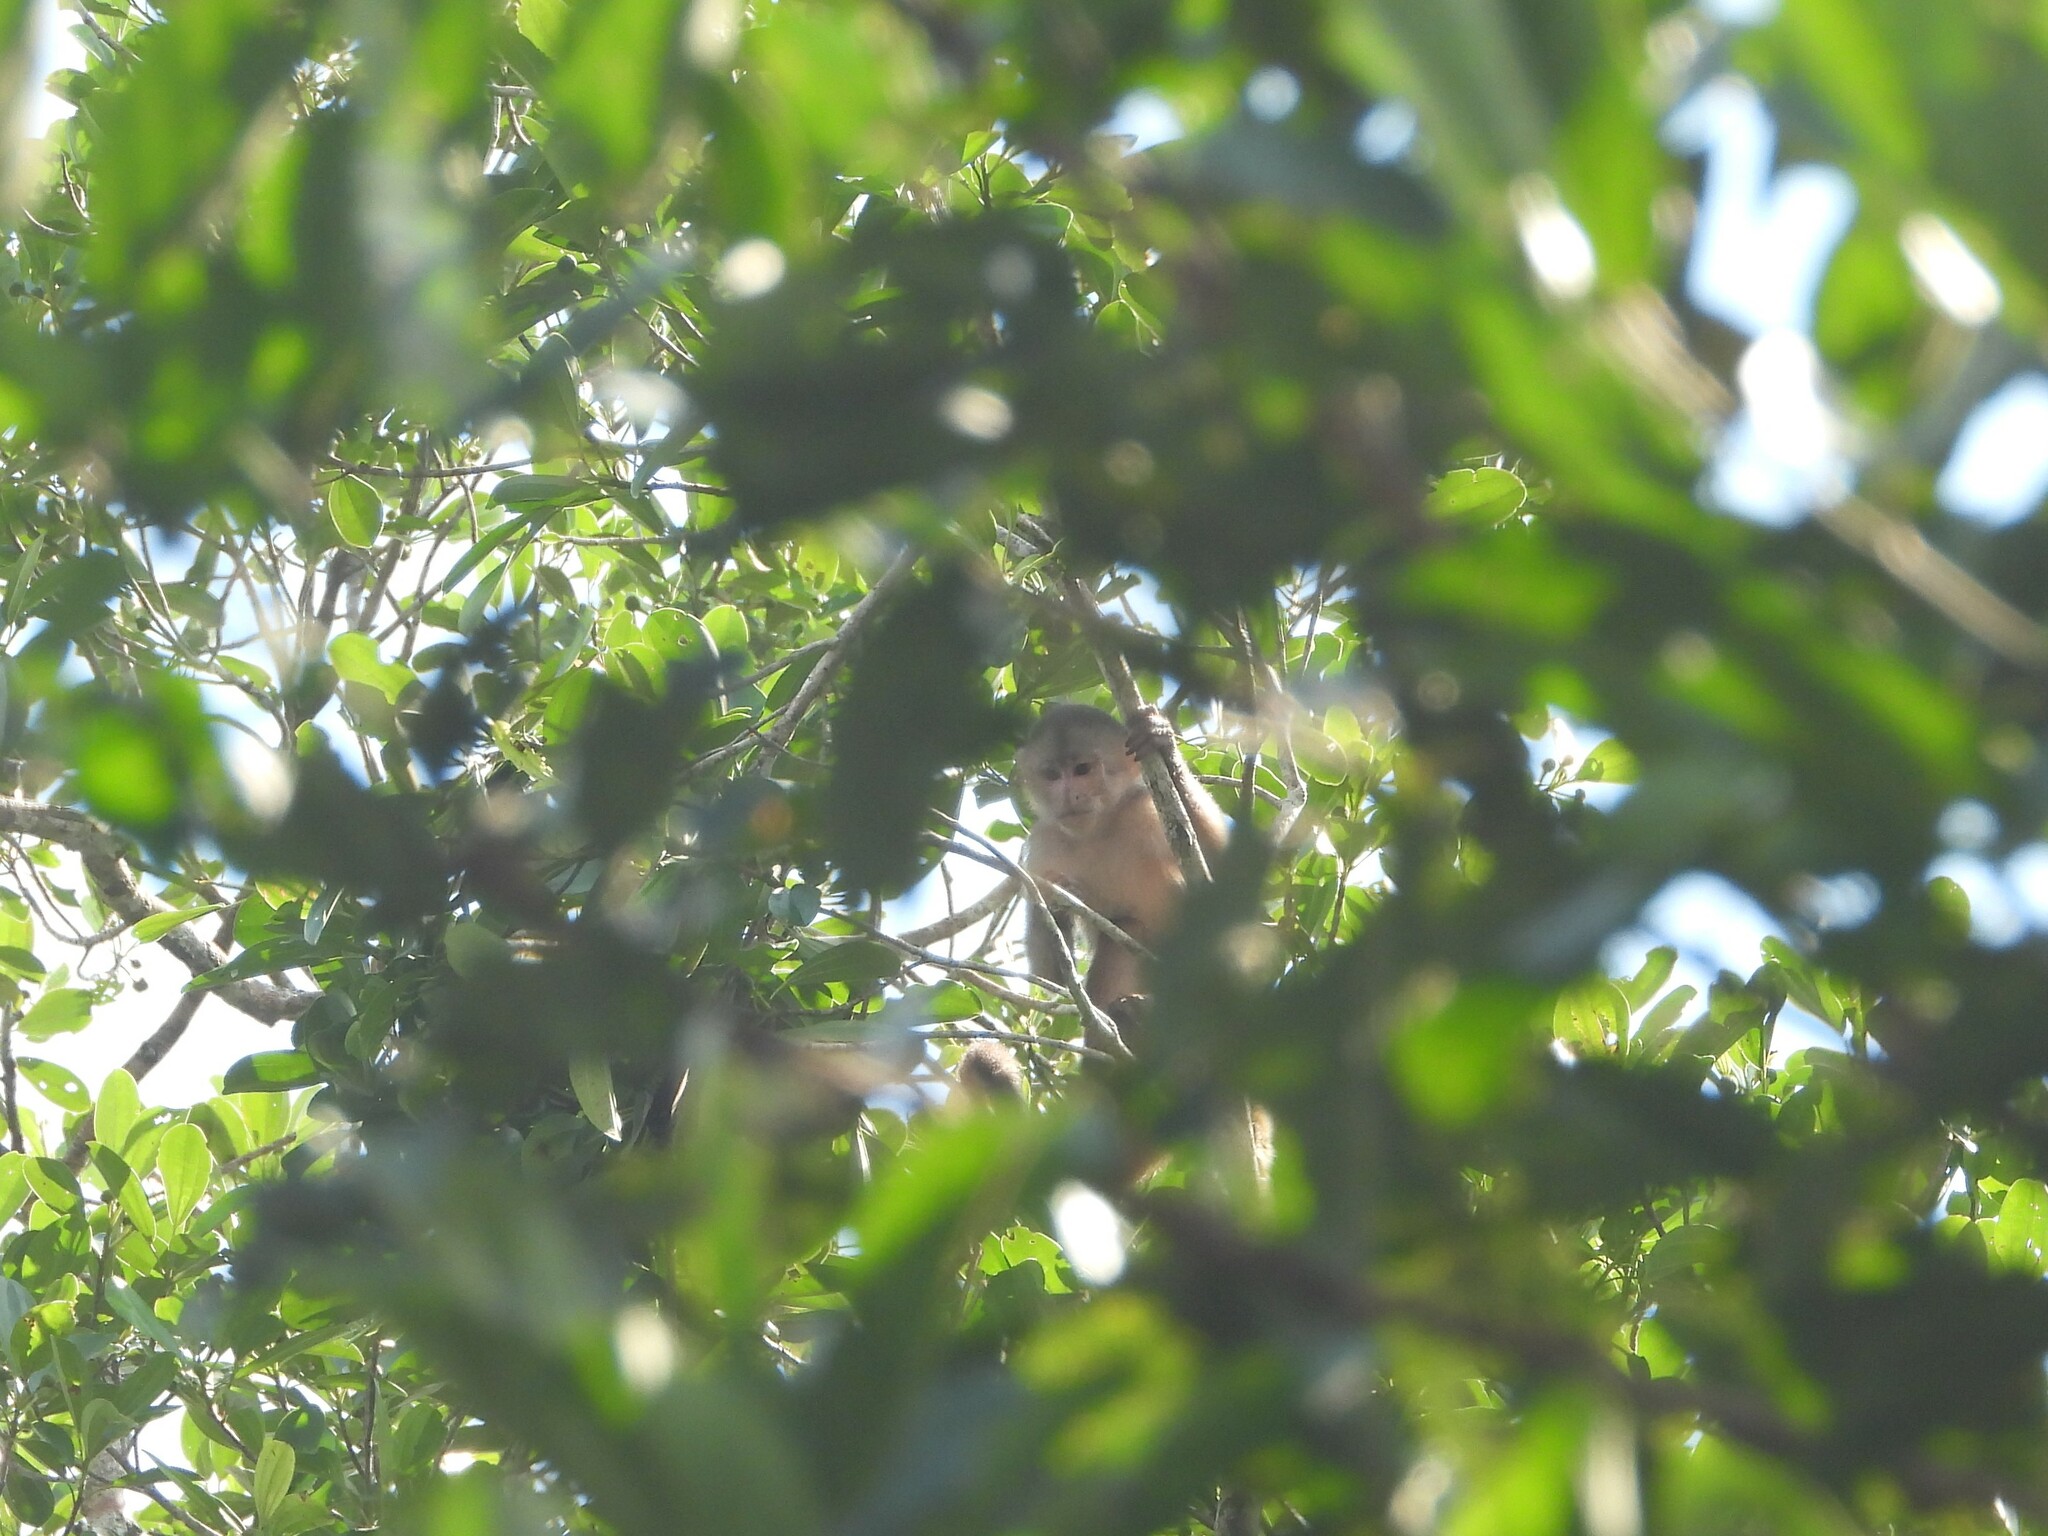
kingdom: Animalia
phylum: Chordata
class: Mammalia
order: Primates
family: Cebidae
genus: Cebus
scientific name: Cebus yuracus
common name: Peruvian white-fronted capuchin
